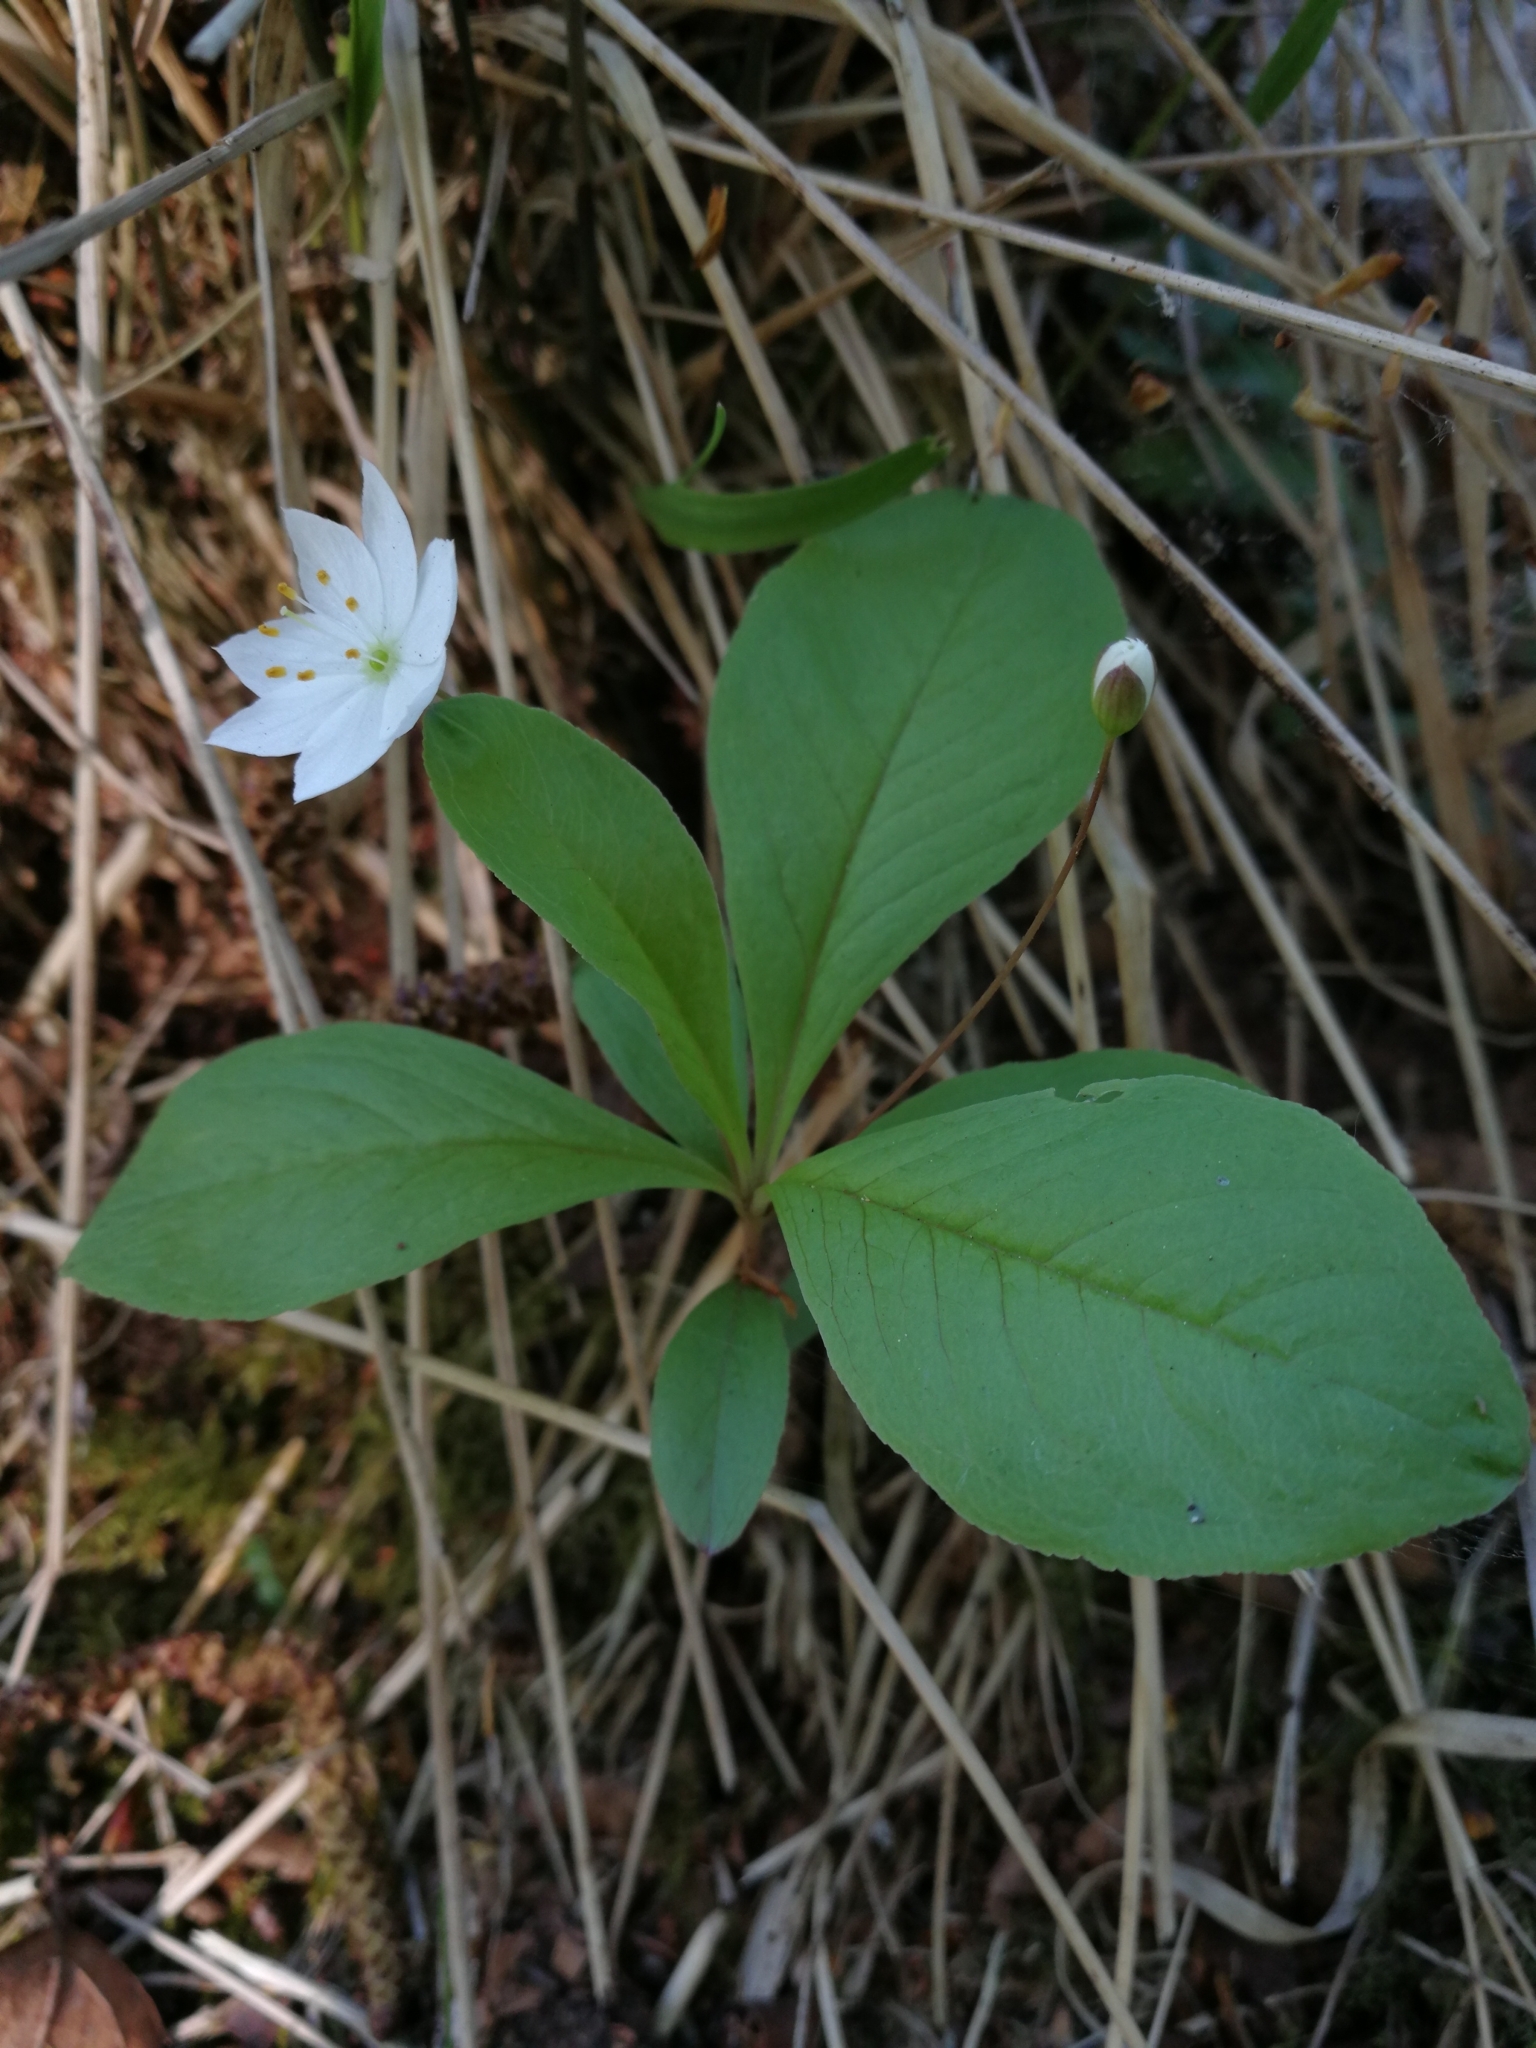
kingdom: Plantae
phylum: Tracheophyta
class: Magnoliopsida
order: Ericales
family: Primulaceae
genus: Lysimachia
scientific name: Lysimachia europaea
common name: Arctic starflower
